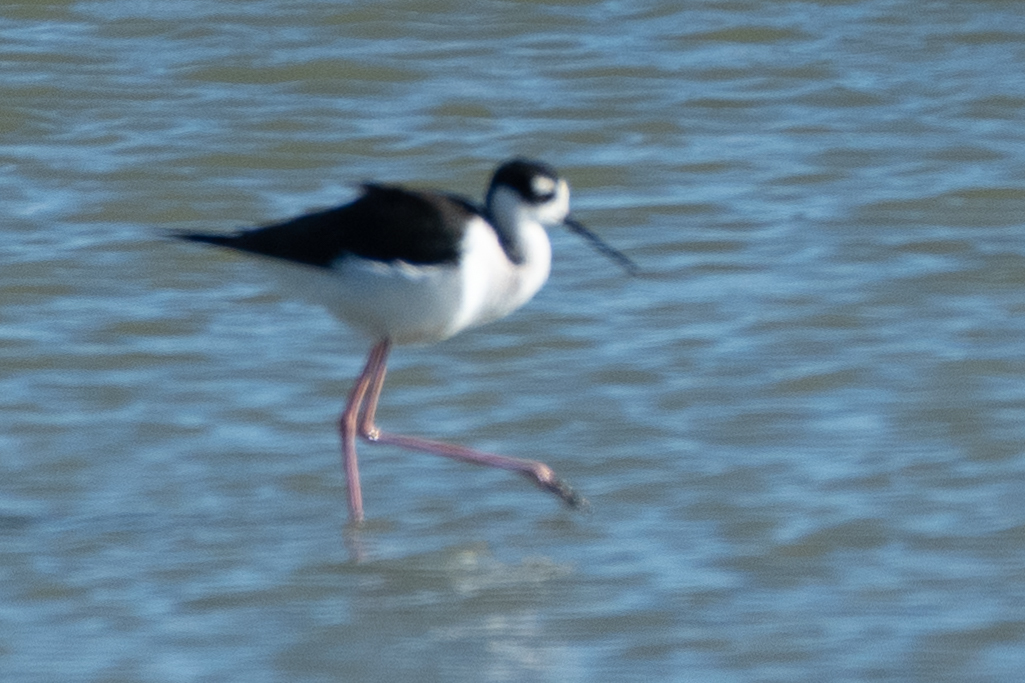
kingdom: Animalia
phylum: Chordata
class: Aves
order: Charadriiformes
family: Recurvirostridae
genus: Himantopus
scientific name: Himantopus mexicanus
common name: Black-necked stilt
